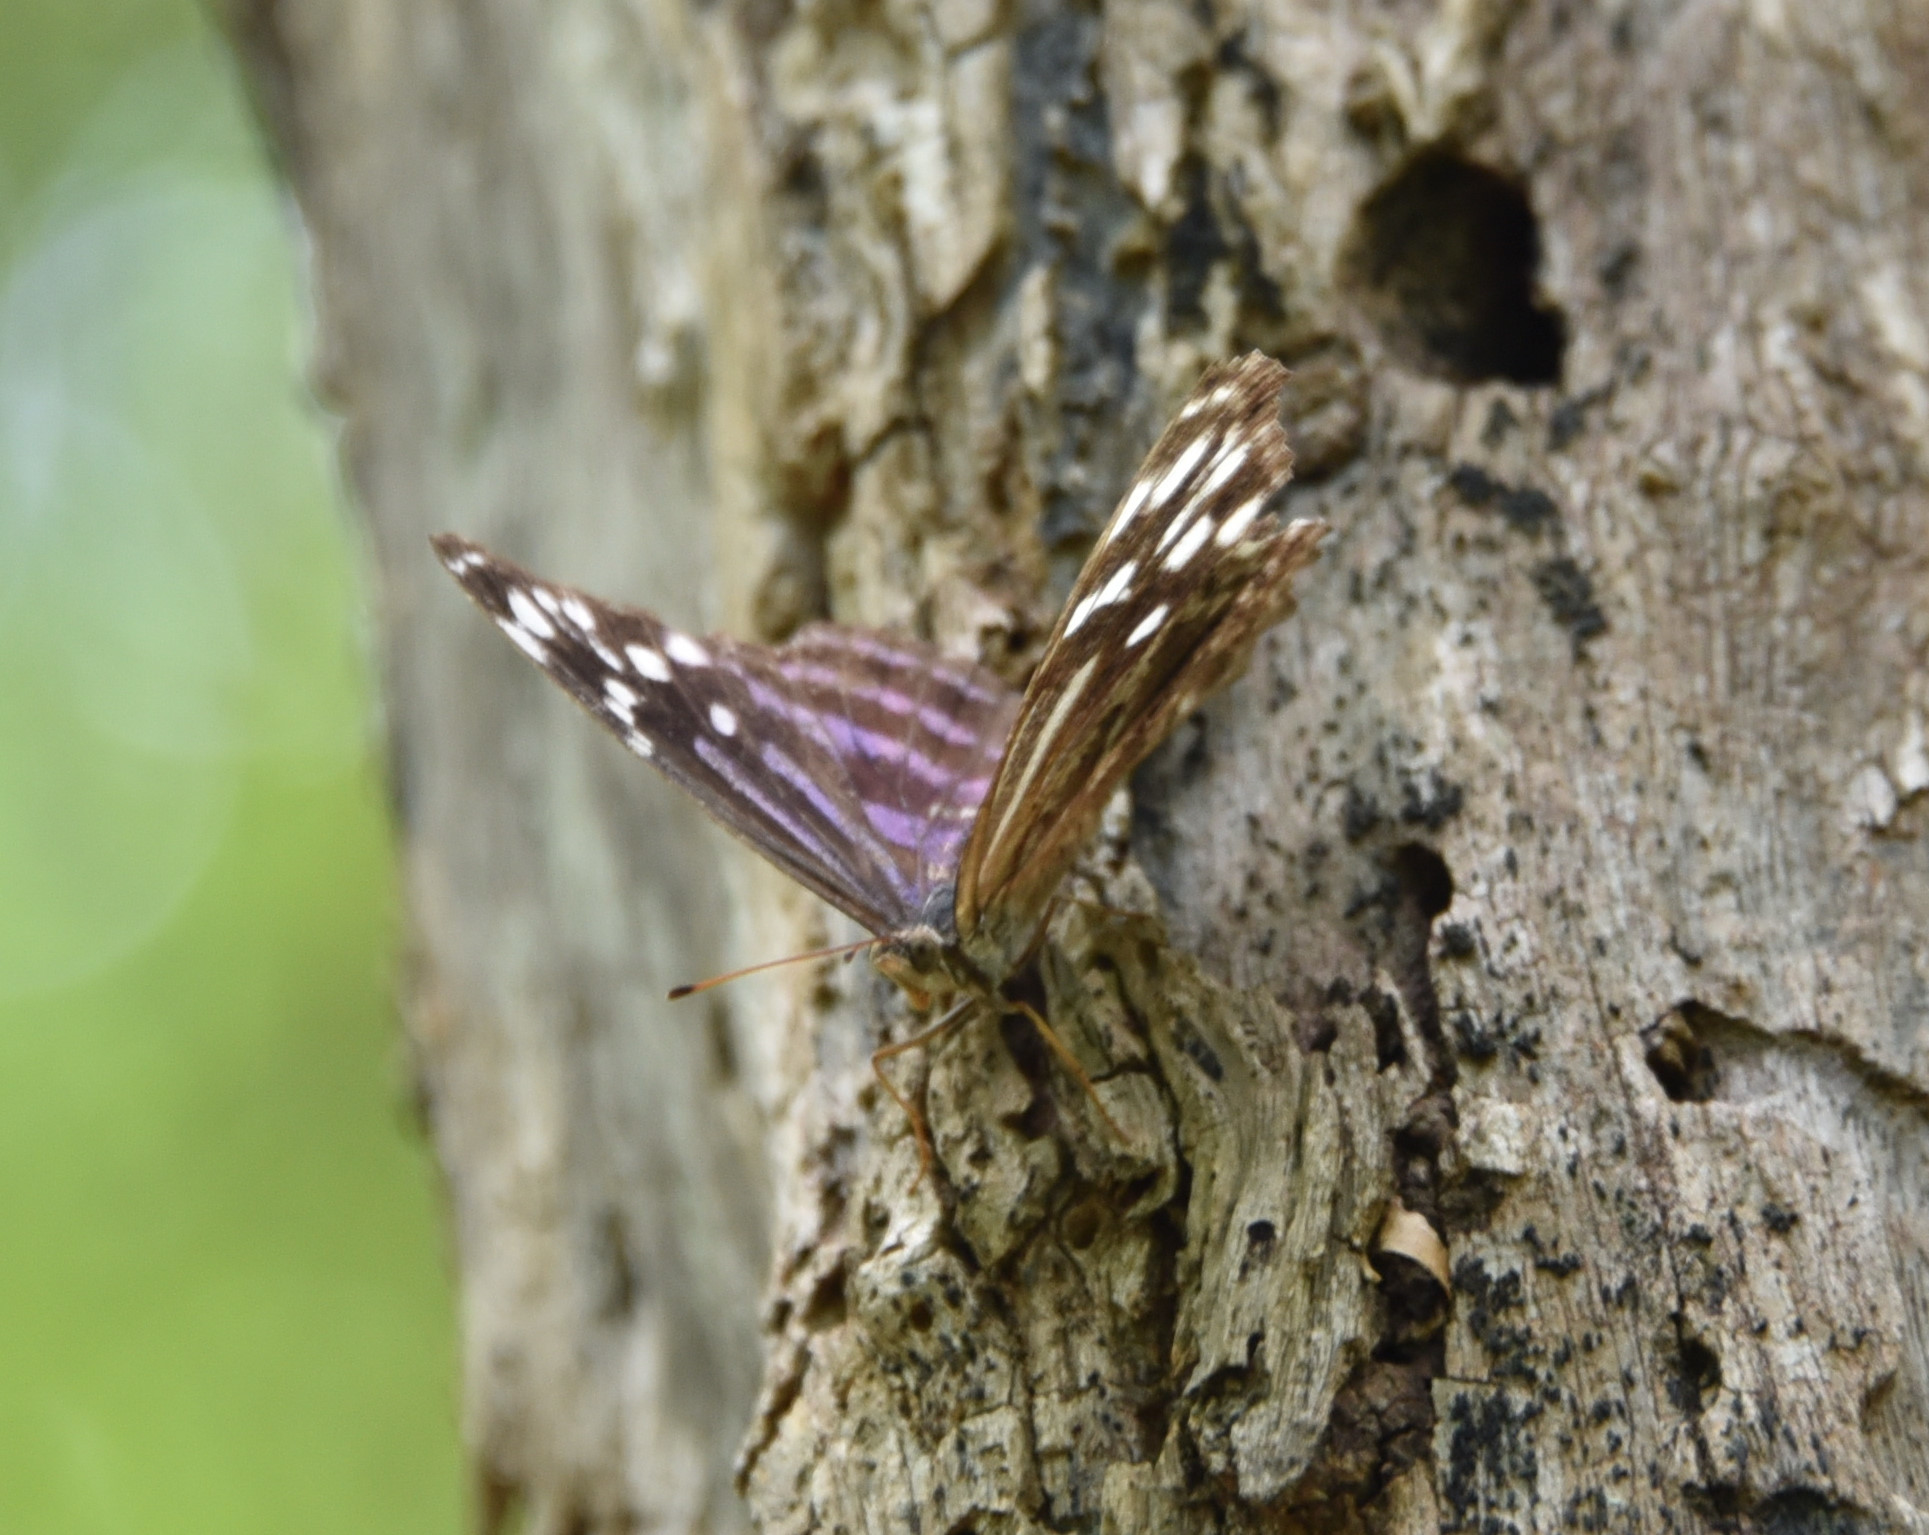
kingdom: Animalia
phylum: Arthropoda
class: Insecta
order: Lepidoptera
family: Nymphalidae
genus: Myscelia
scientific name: Myscelia ethusa
